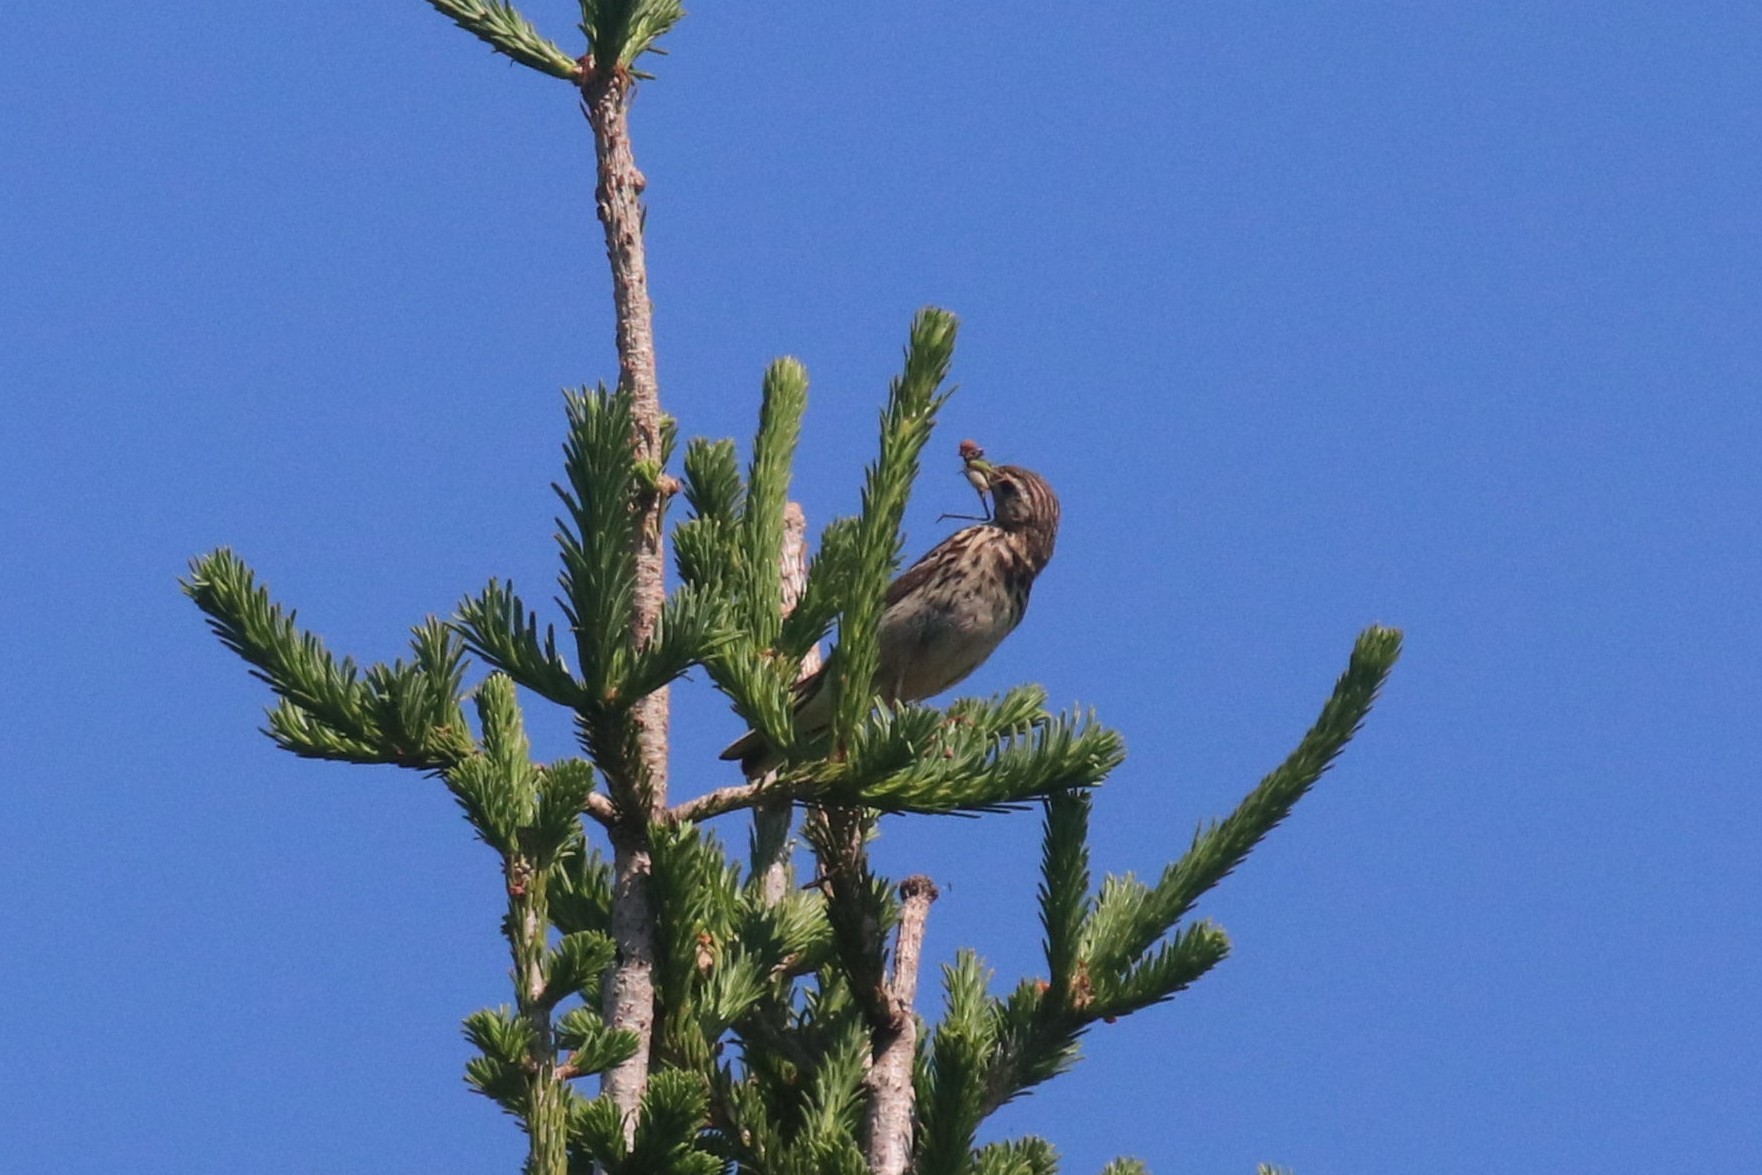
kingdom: Animalia
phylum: Chordata
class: Aves
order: Passeriformes
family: Motacillidae
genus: Anthus
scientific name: Anthus trivialis
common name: Tree pipit
